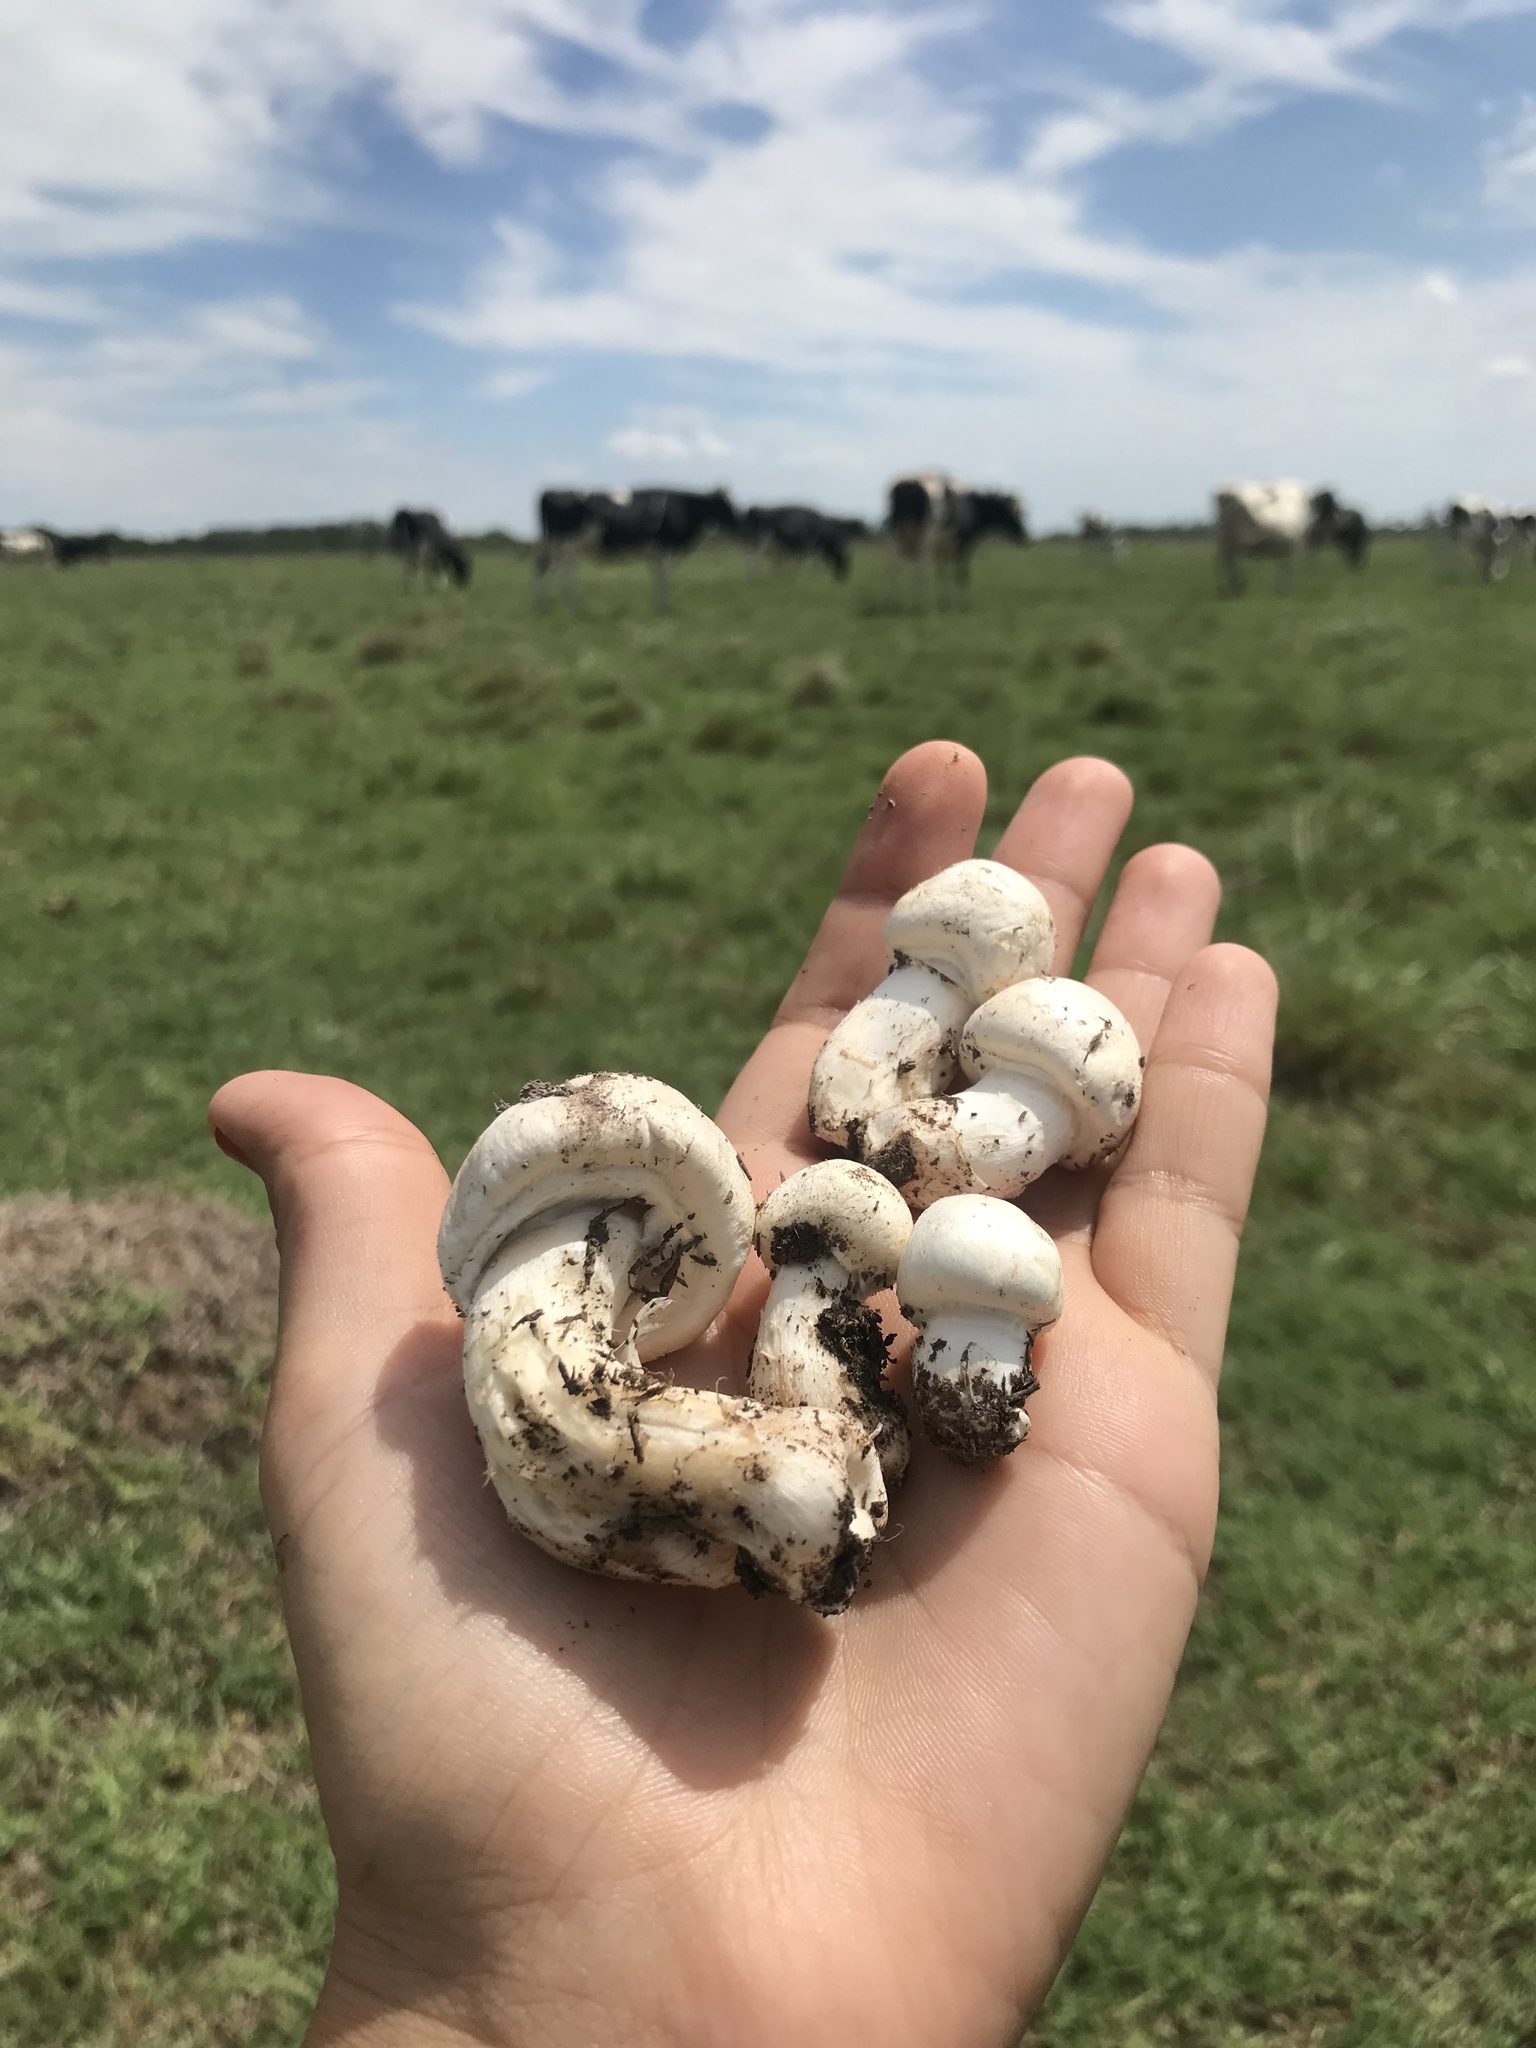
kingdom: Fungi
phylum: Basidiomycota
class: Agaricomycetes
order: Agaricales
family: Agaricaceae
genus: Agaricus
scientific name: Agaricus campestris
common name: Field mushroom
